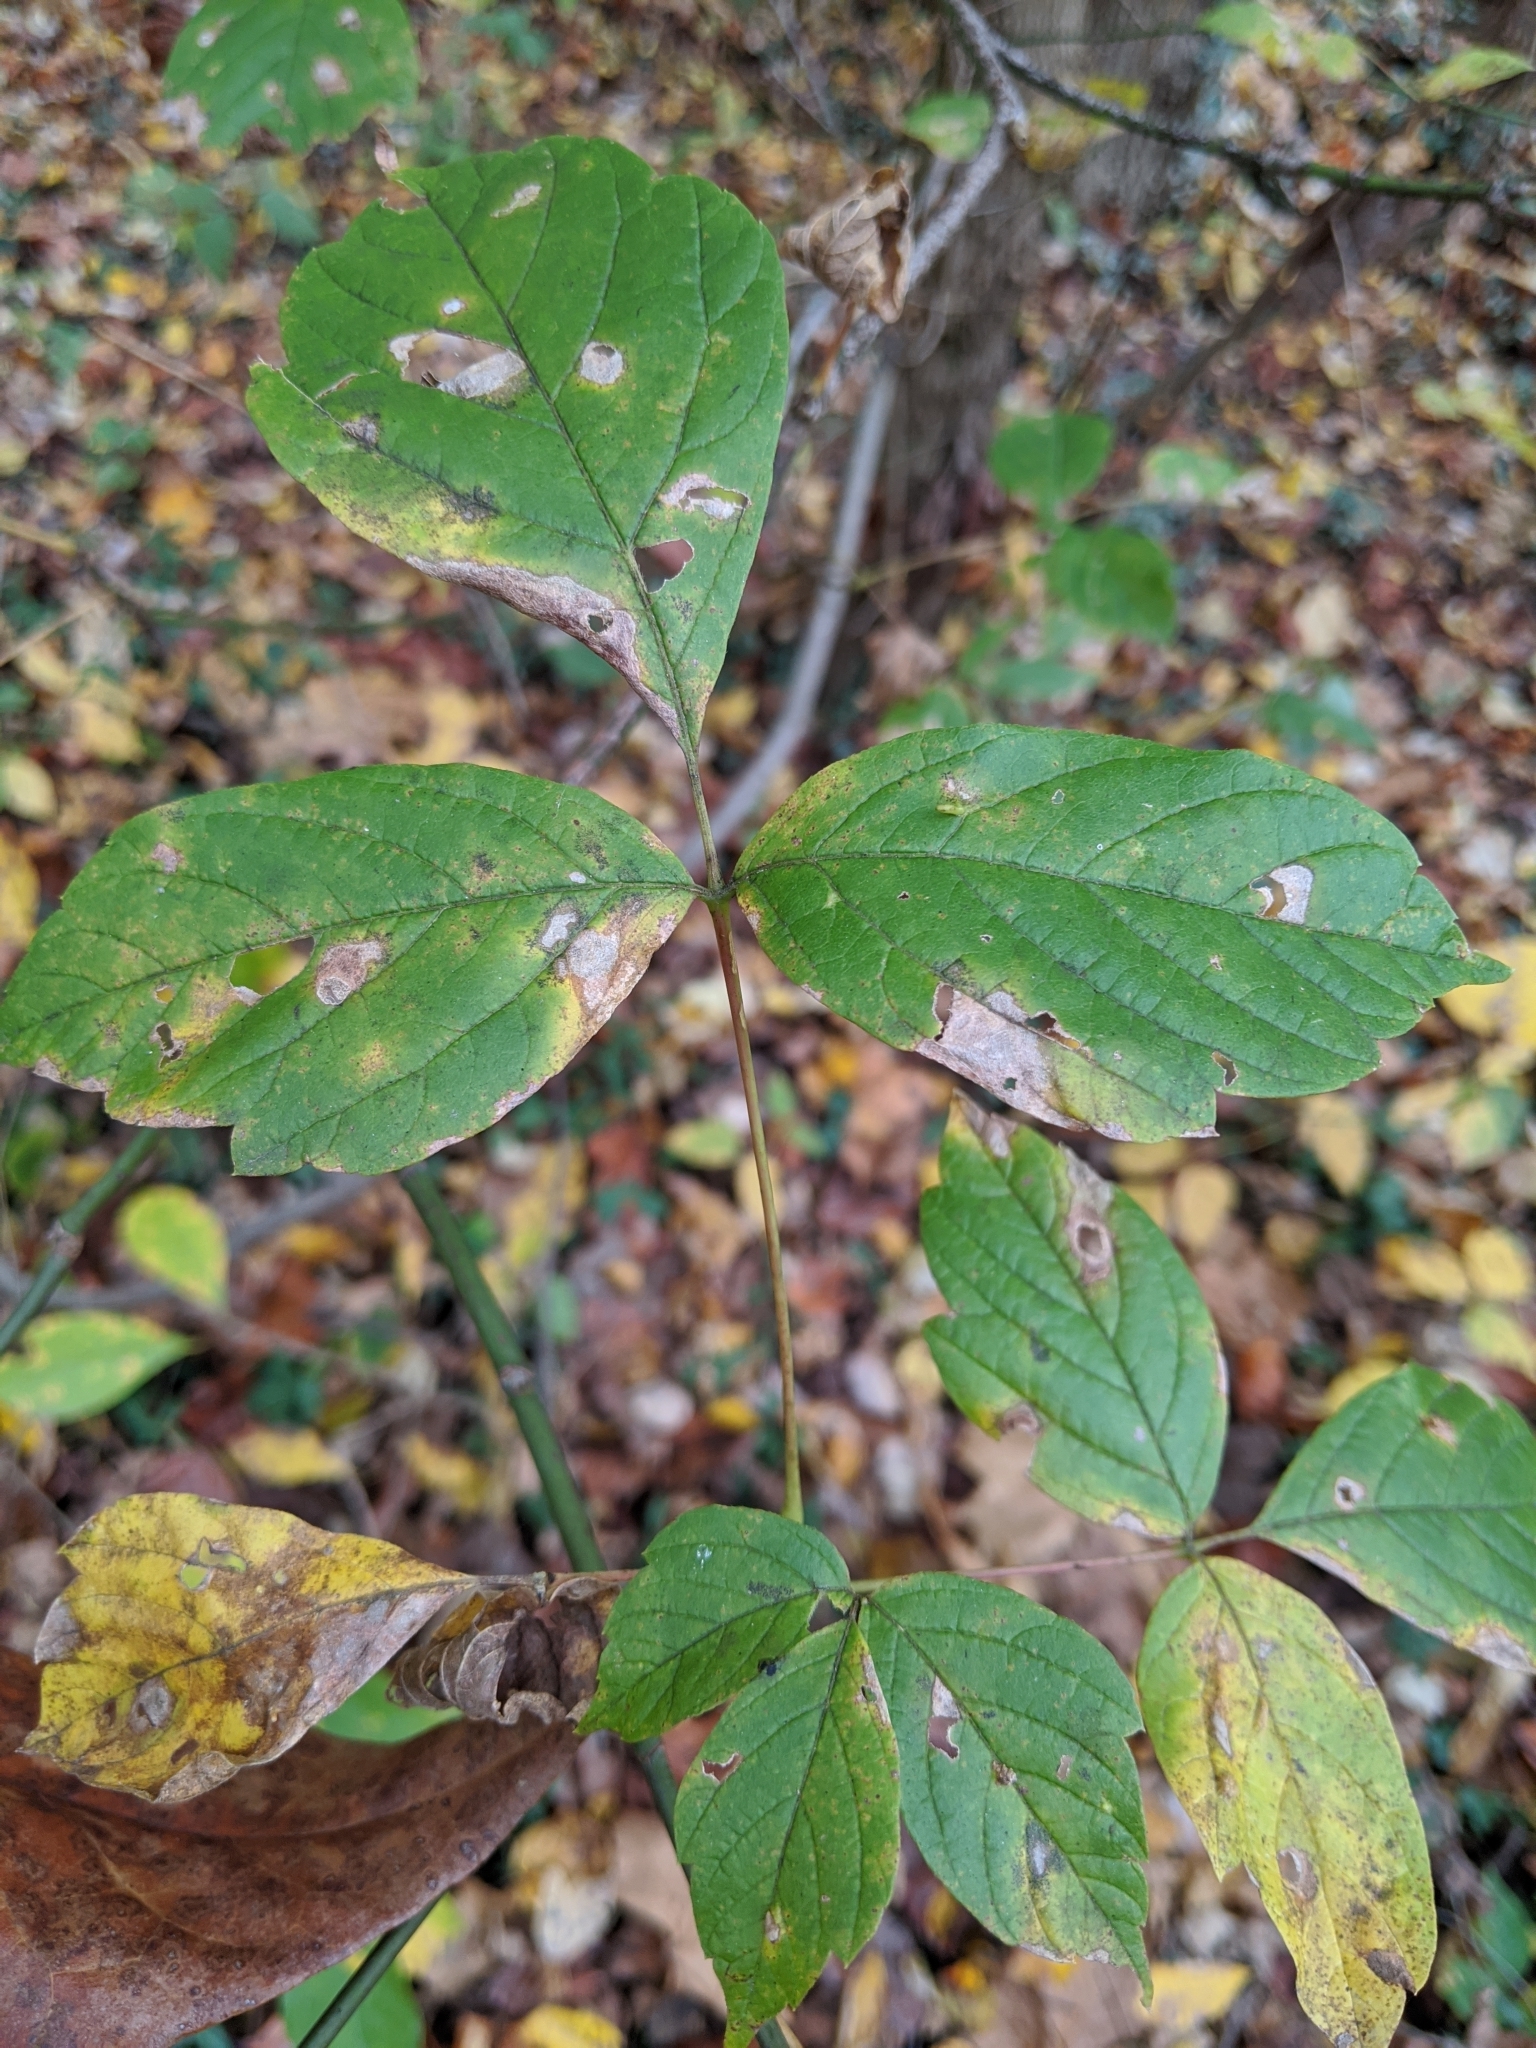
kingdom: Plantae
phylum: Tracheophyta
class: Magnoliopsida
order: Sapindales
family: Sapindaceae
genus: Acer
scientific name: Acer negundo
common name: Ashleaf maple
